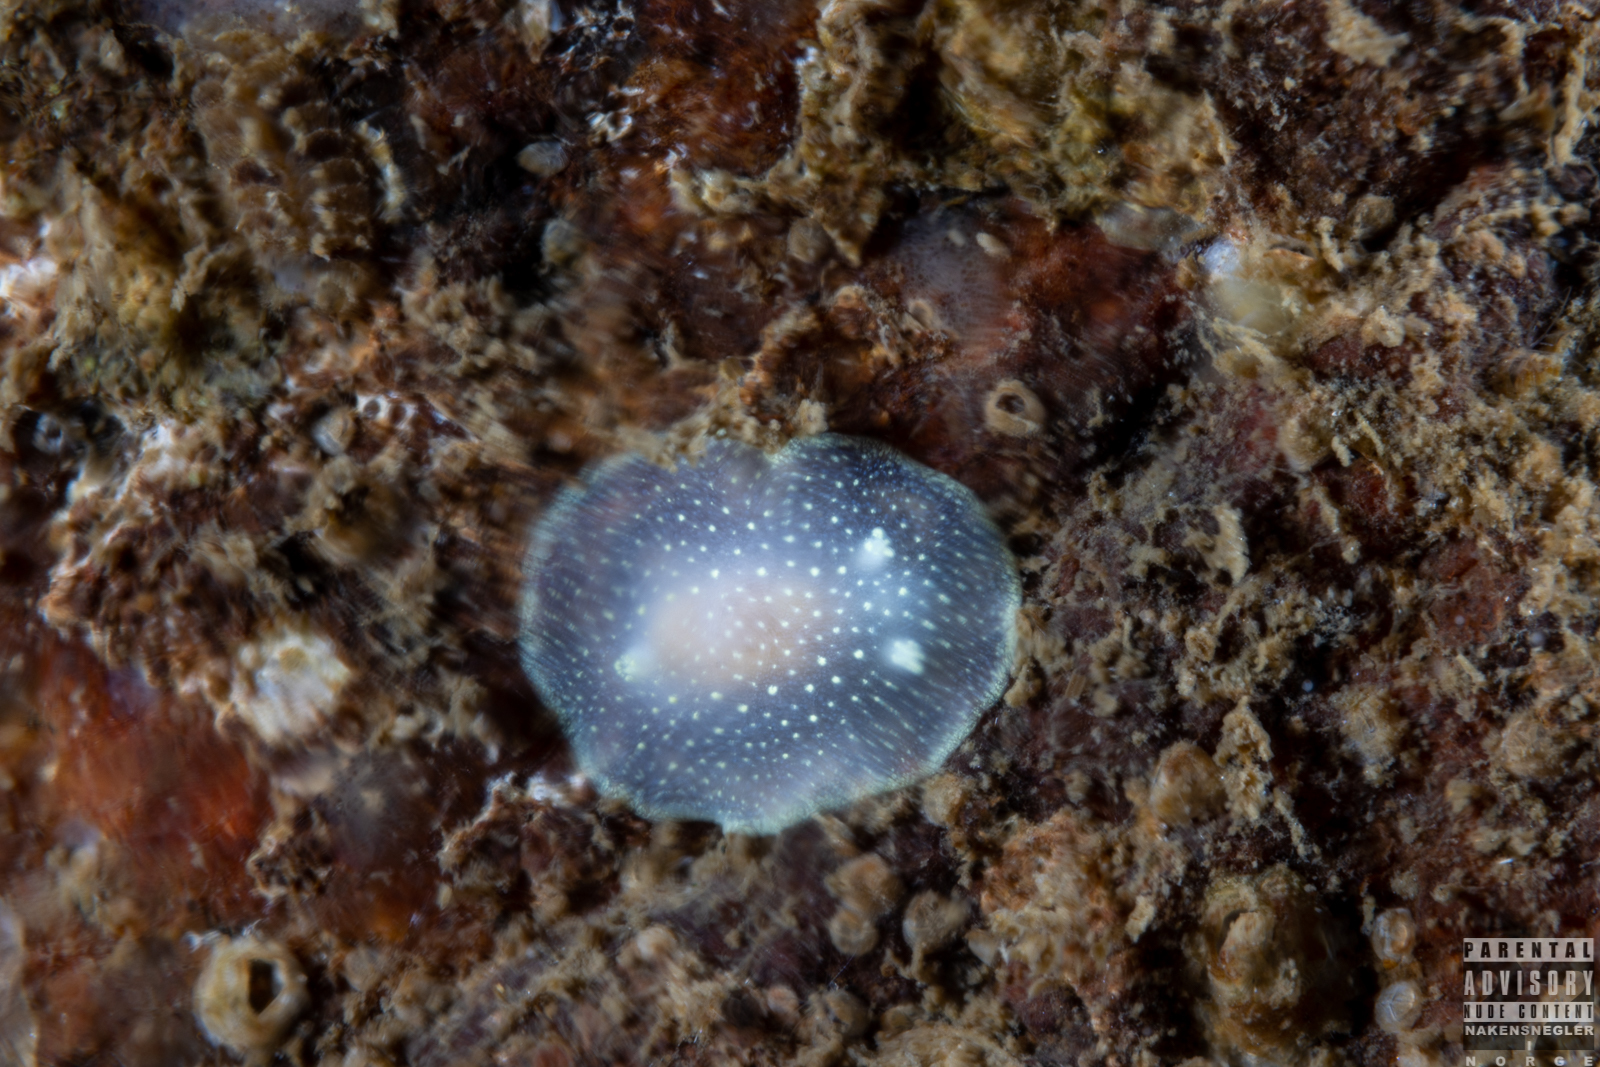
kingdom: Animalia
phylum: Mollusca
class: Gastropoda
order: Nudibranchia
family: Cadlinidae
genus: Cadlina
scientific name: Cadlina laevis
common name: White atlantic cadlina
